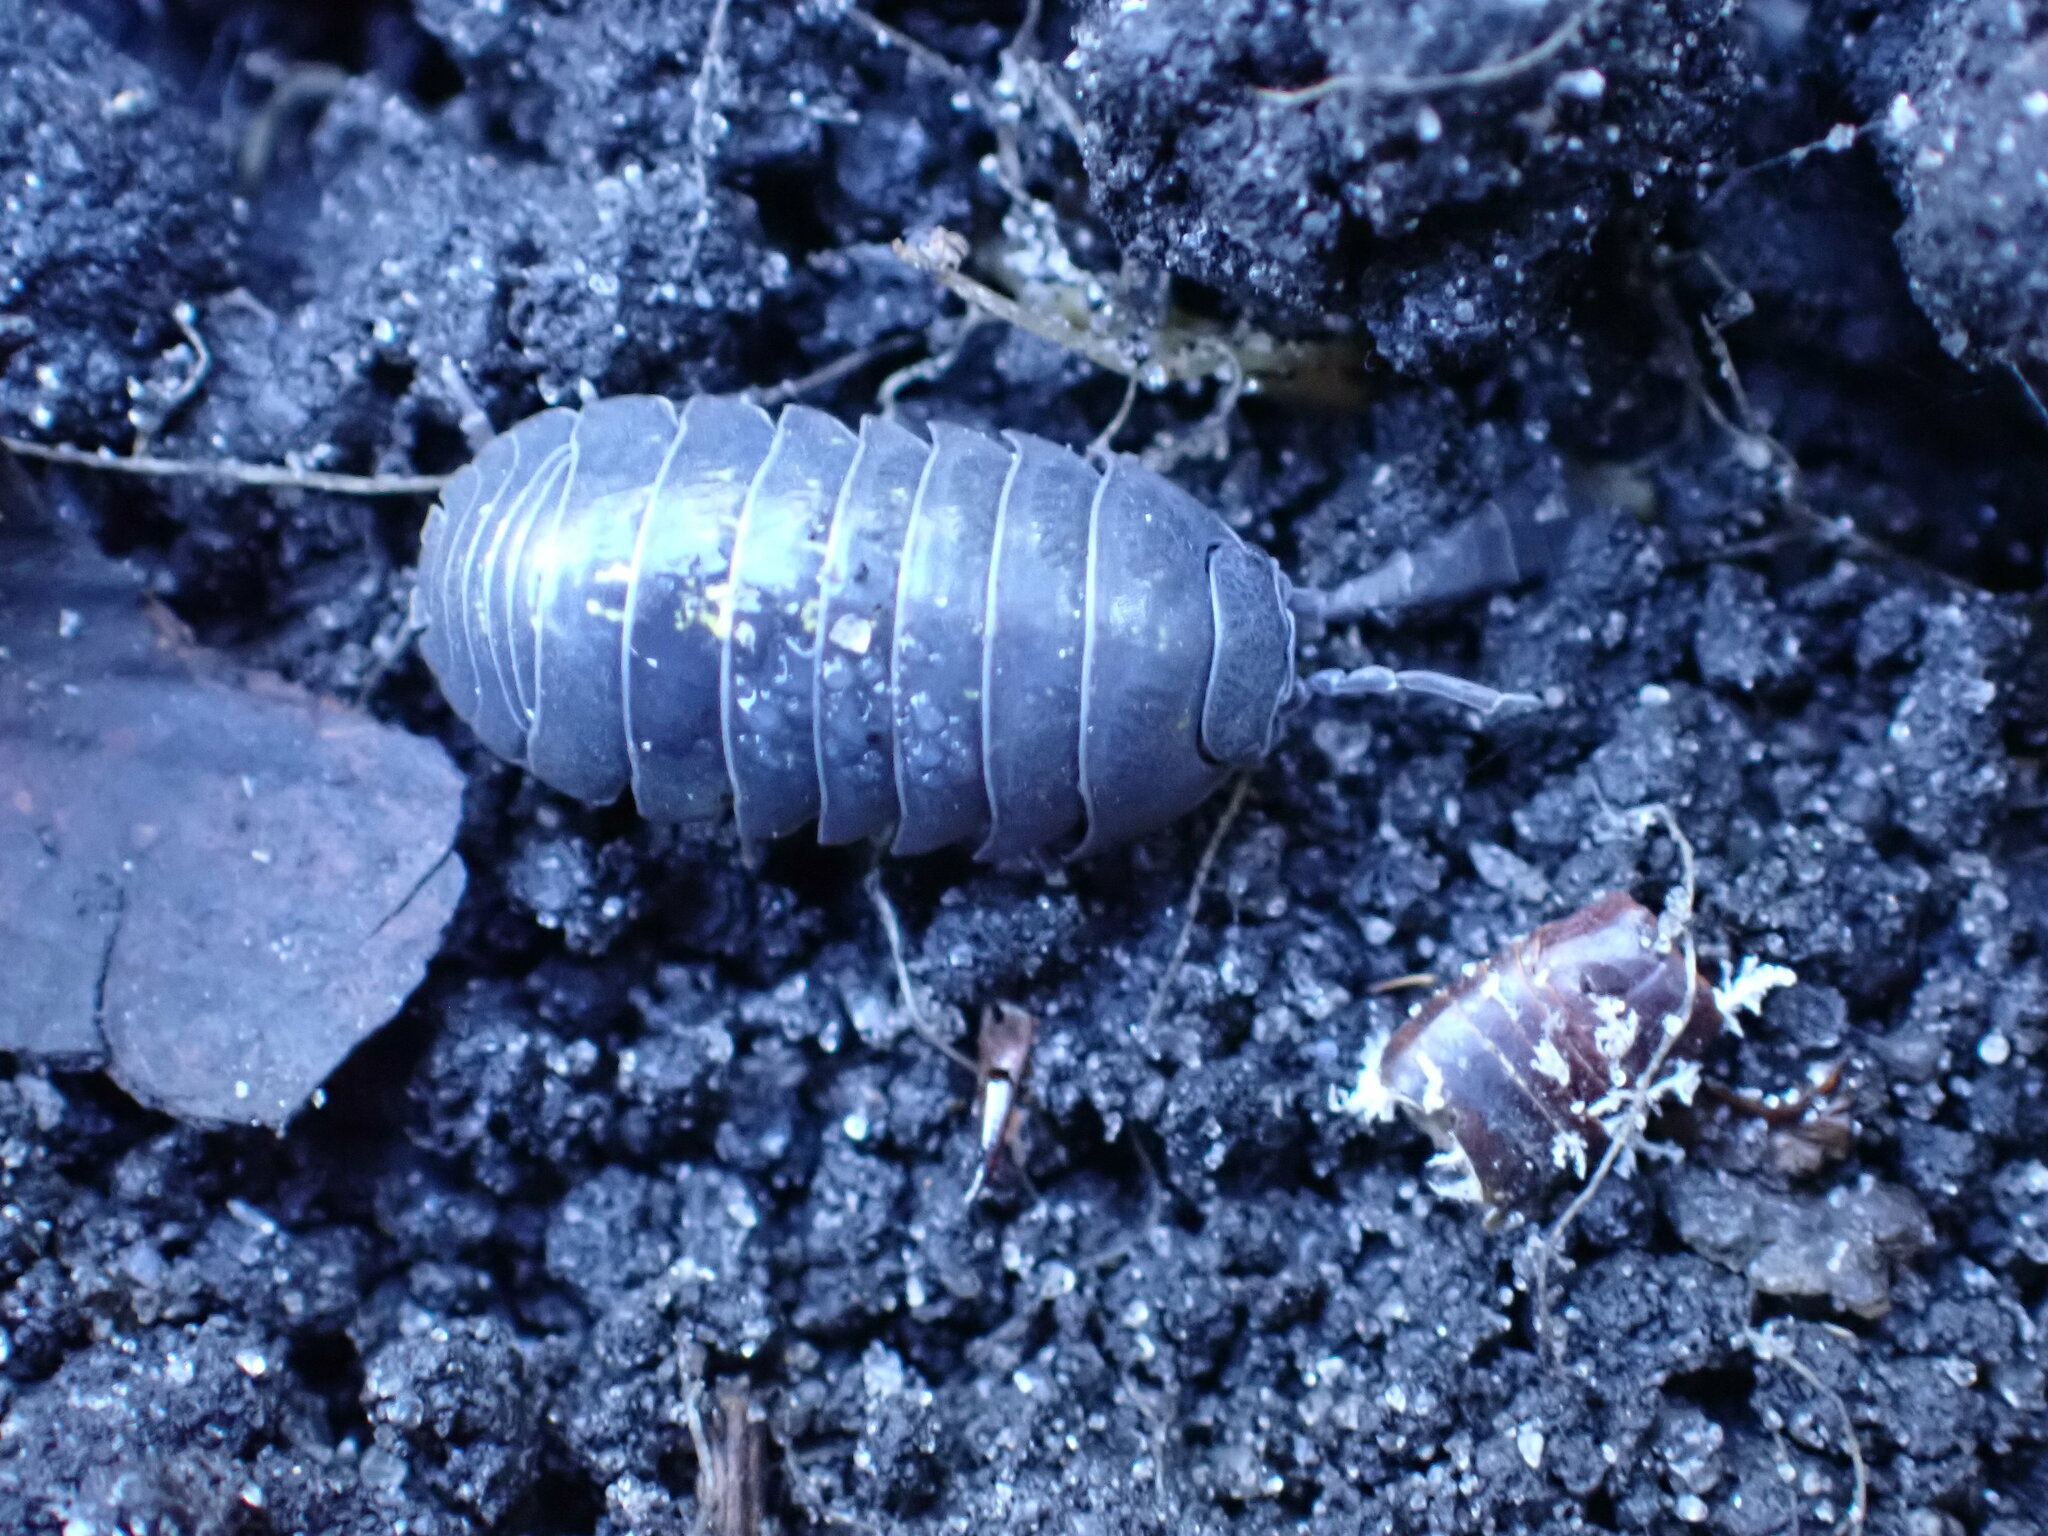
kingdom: Animalia
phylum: Arthropoda
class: Malacostraca
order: Isopoda
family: Armadillidiidae
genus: Armadillidium
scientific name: Armadillidium vulgare
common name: Common pill woodlouse
